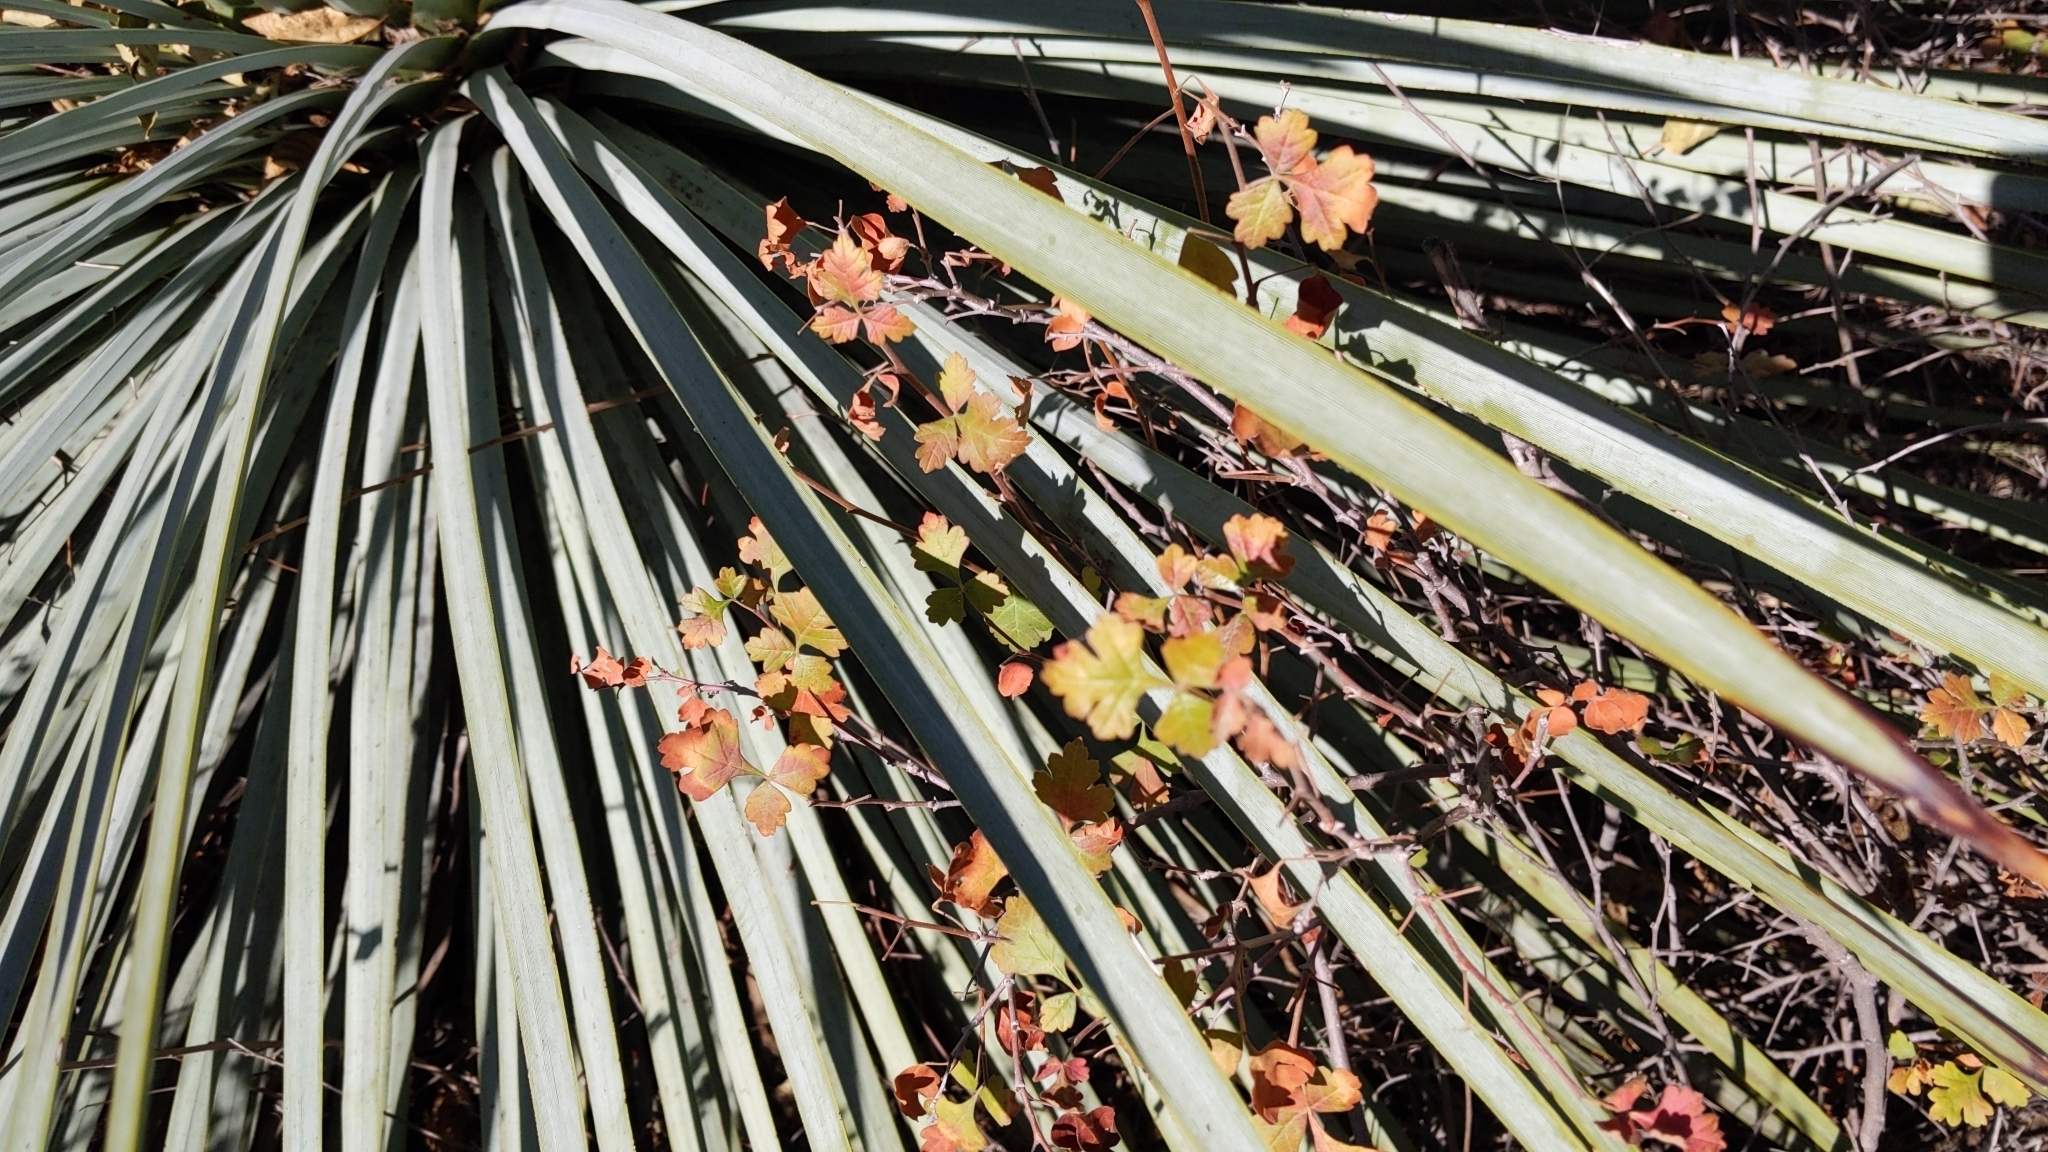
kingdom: Plantae
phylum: Tracheophyta
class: Magnoliopsida
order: Sapindales
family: Anacardiaceae
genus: Rhus
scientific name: Rhus aromatica
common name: Aromatic sumac
